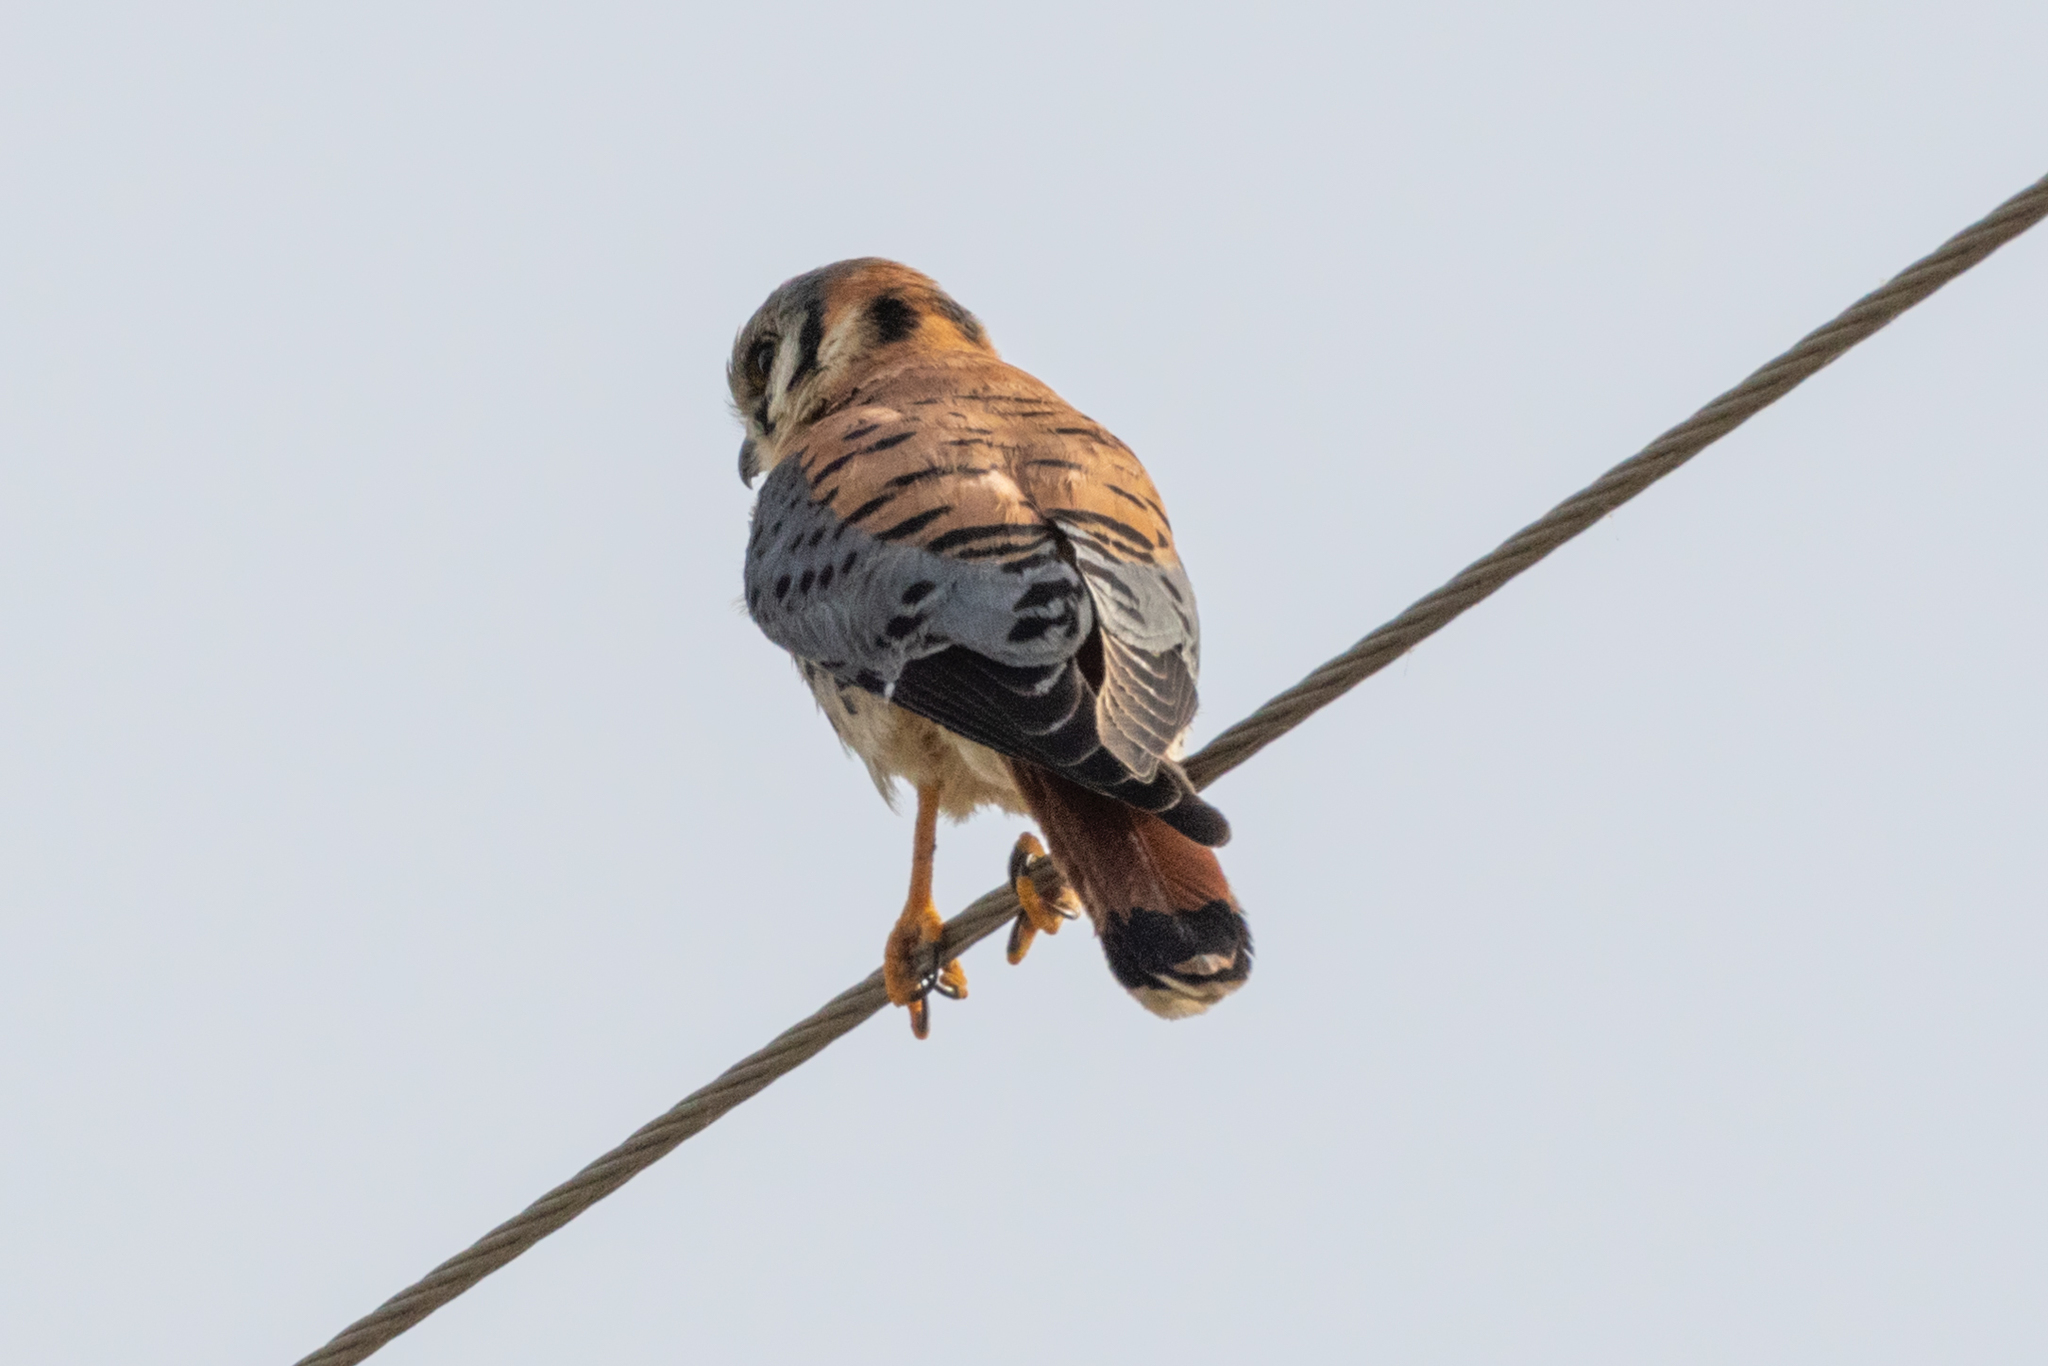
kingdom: Animalia
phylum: Chordata
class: Aves
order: Falconiformes
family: Falconidae
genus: Falco
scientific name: Falco sparverius
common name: American kestrel
